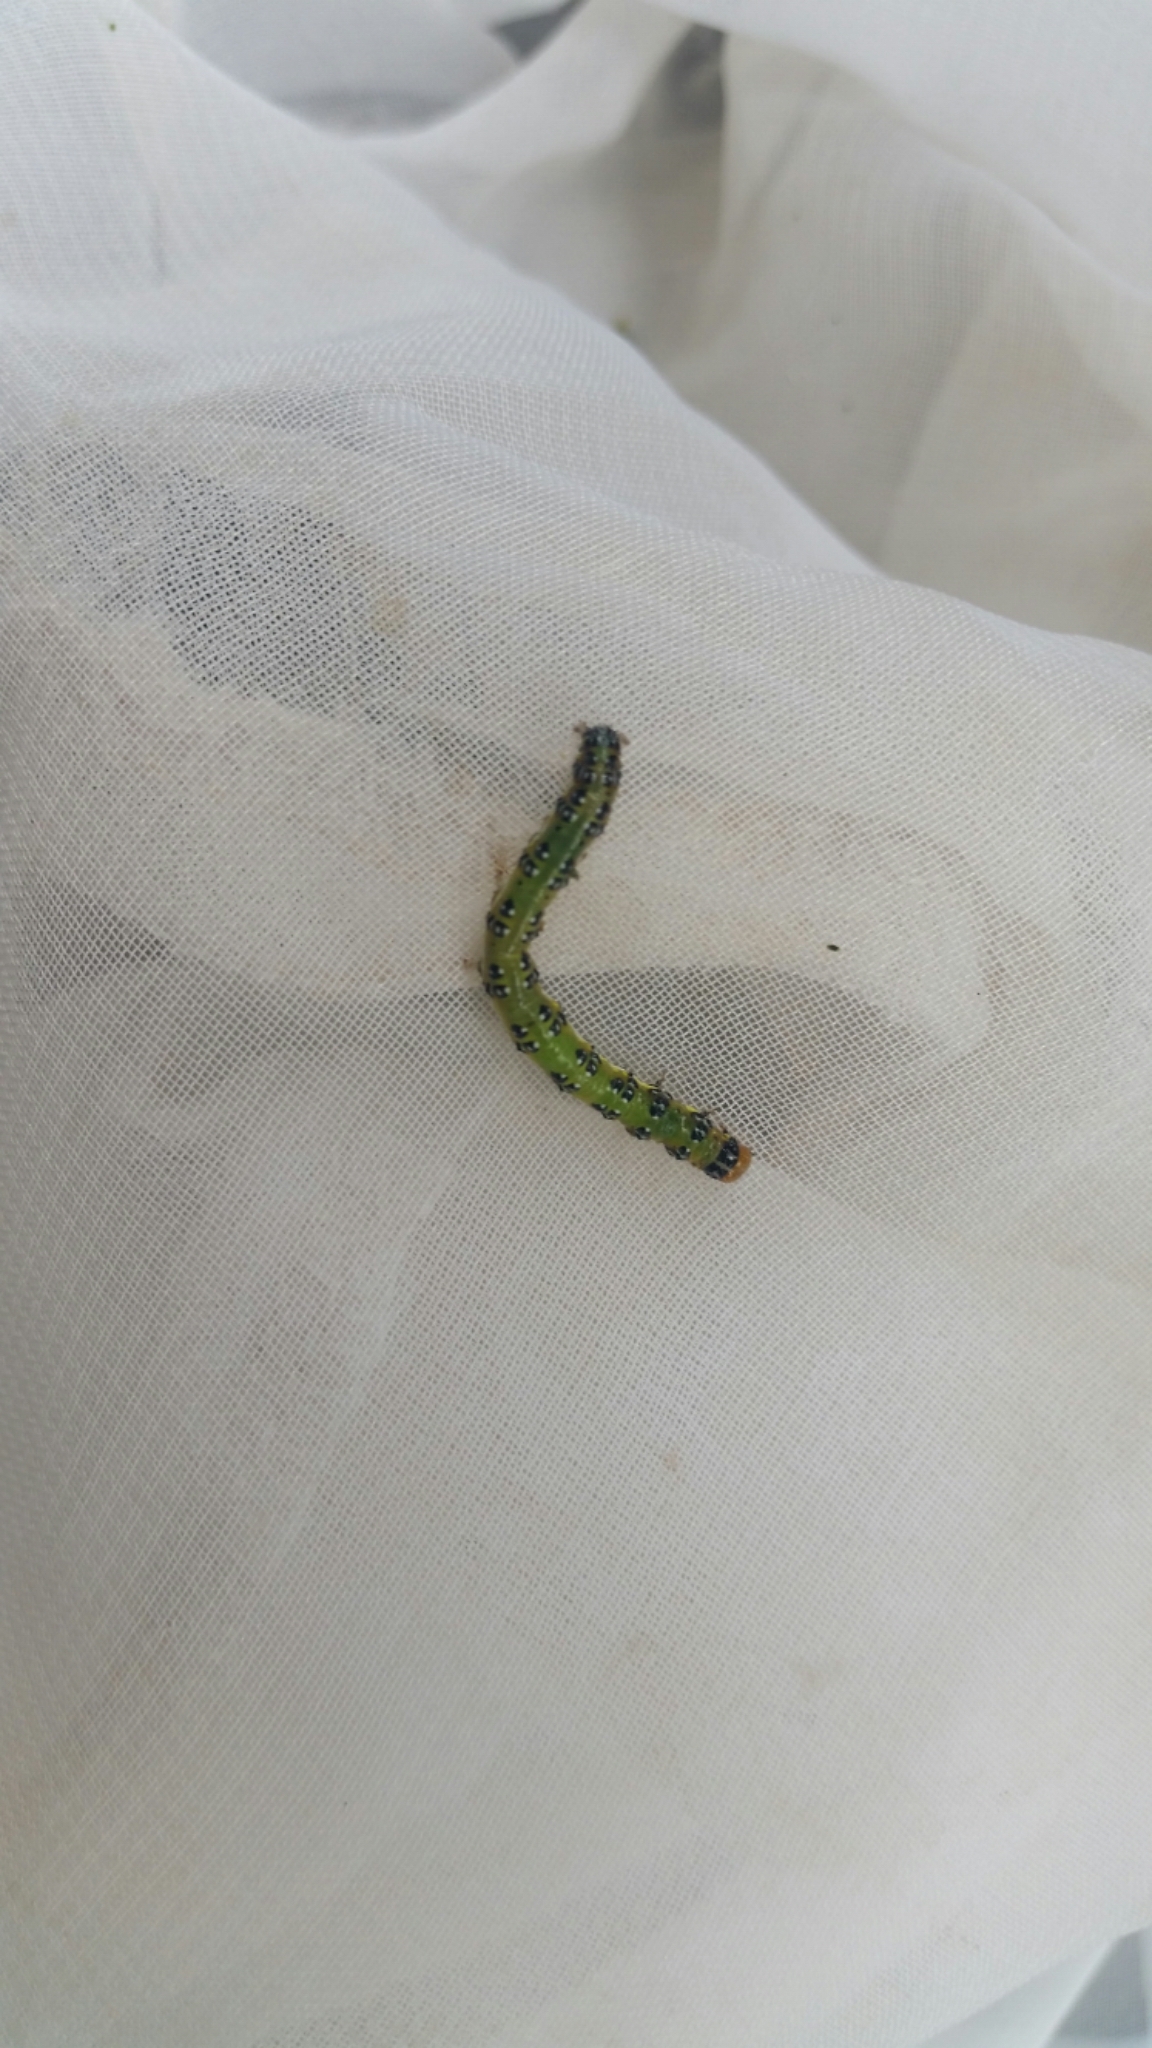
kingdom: Animalia
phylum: Arthropoda
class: Insecta
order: Lepidoptera
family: Crambidae
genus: Uresiphita
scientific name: Uresiphita
